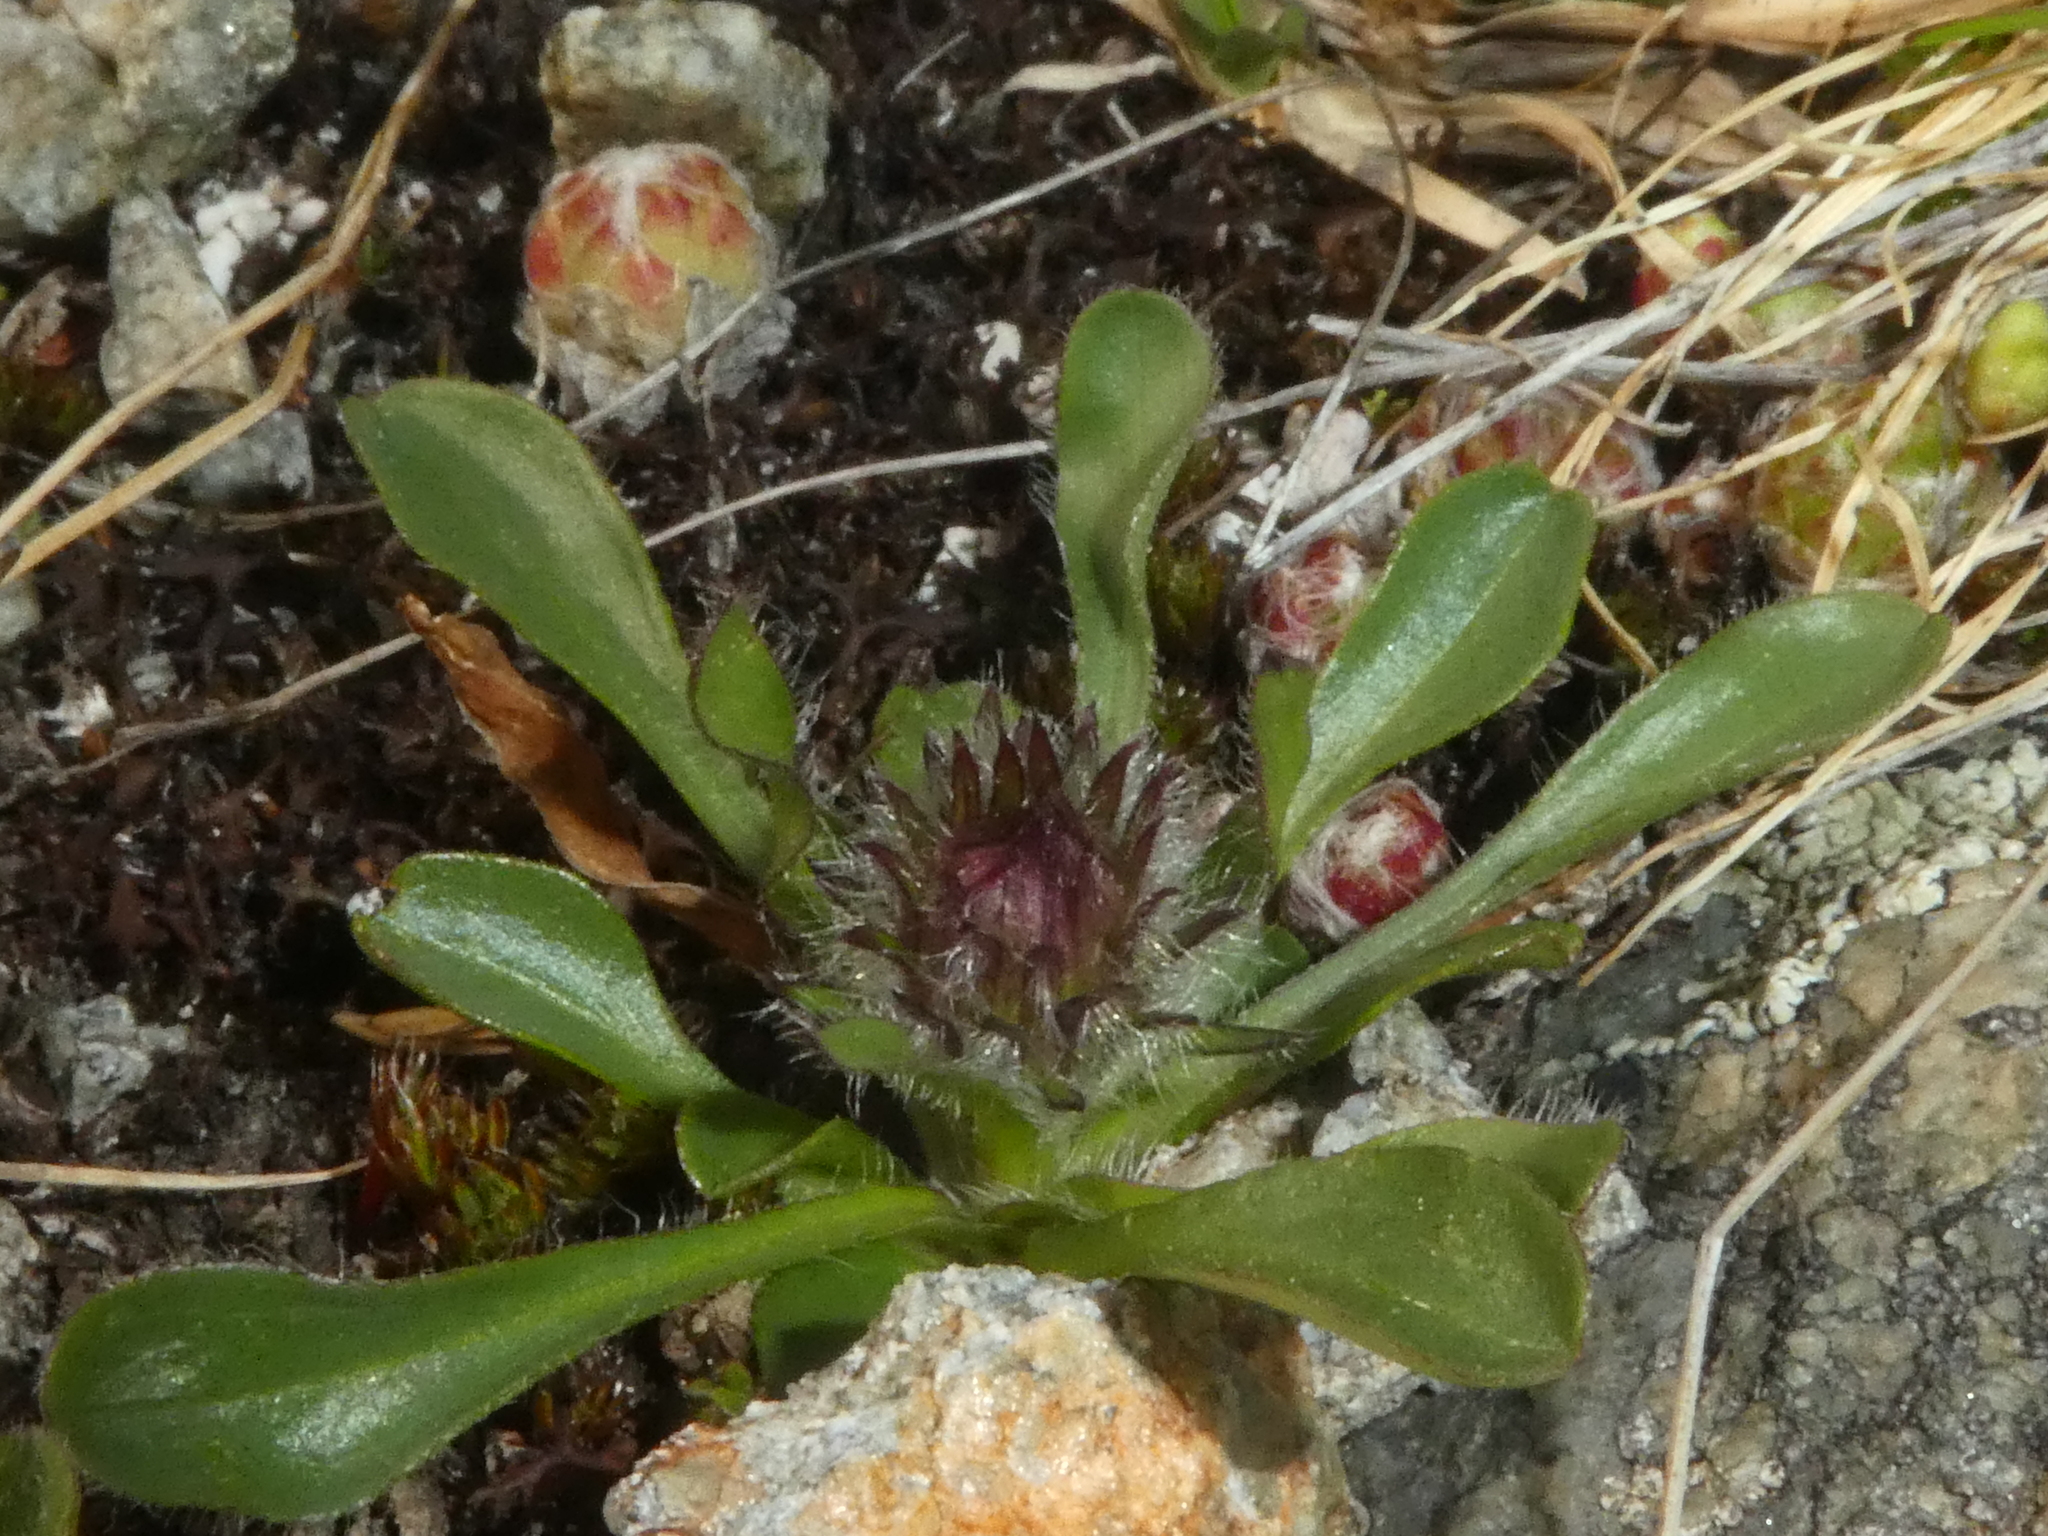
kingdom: Plantae
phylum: Tracheophyta
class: Magnoliopsida
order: Asterales
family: Asteraceae
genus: Erigeron
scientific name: Erigeron uniflorus
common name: Northern daisy
